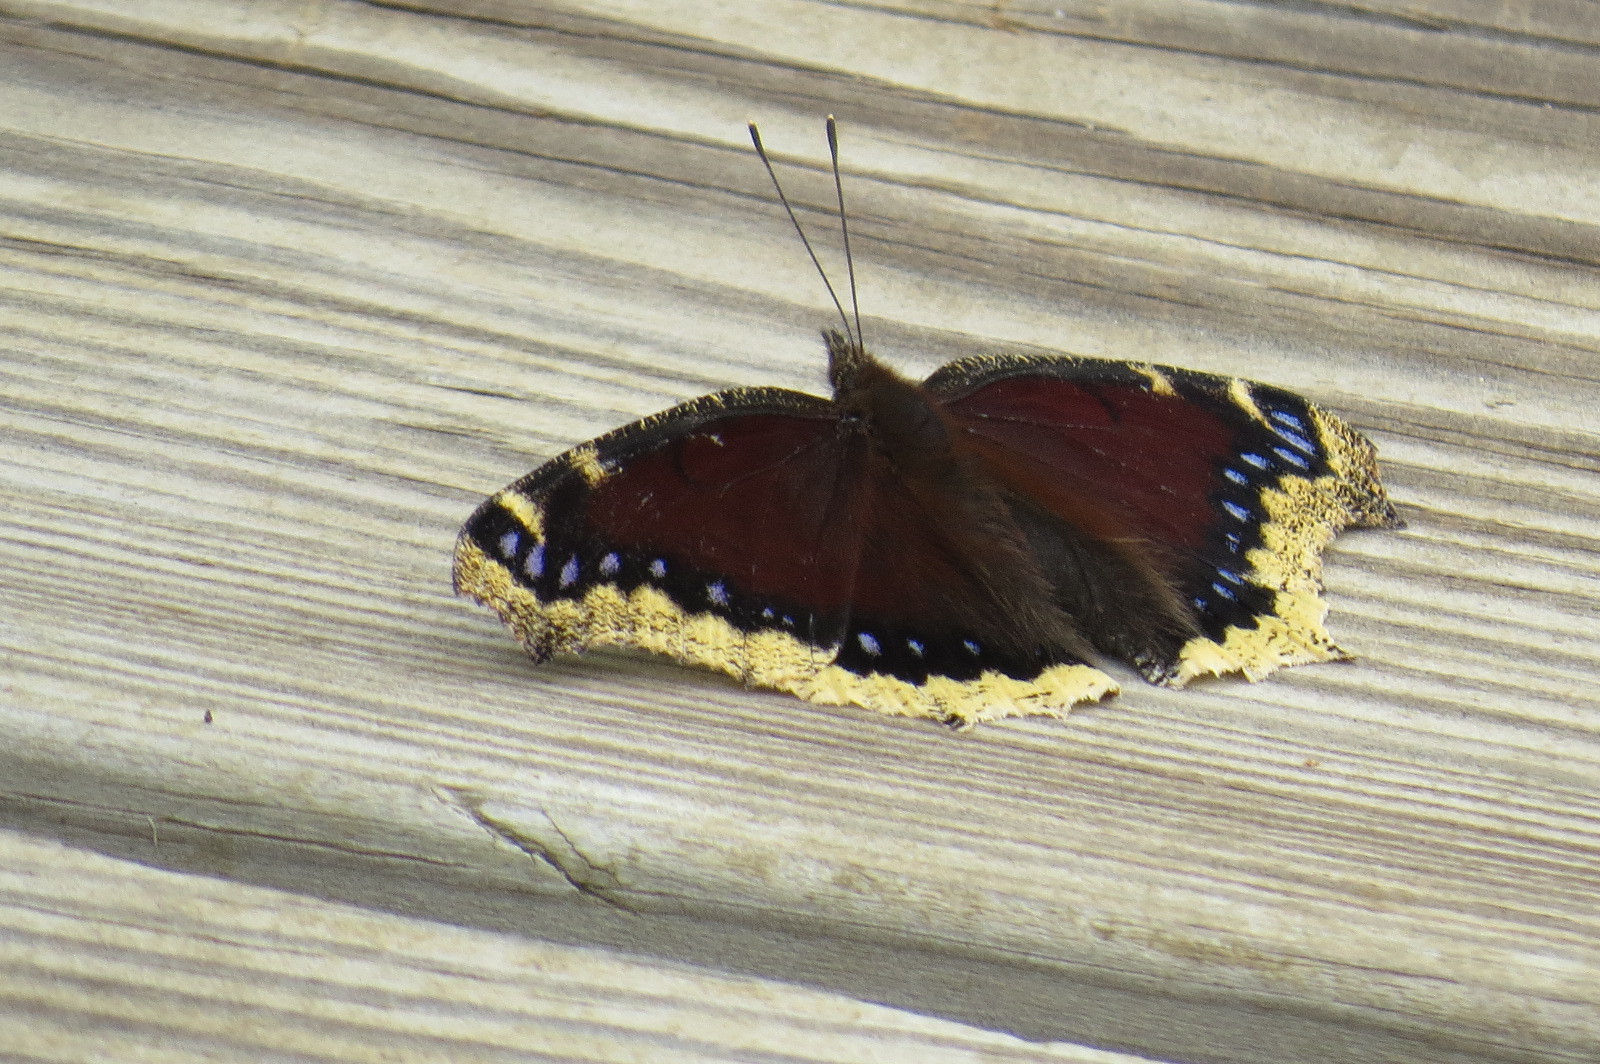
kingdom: Animalia
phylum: Arthropoda
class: Insecta
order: Lepidoptera
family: Nymphalidae
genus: Nymphalis
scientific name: Nymphalis antiopa
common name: Camberwell beauty
